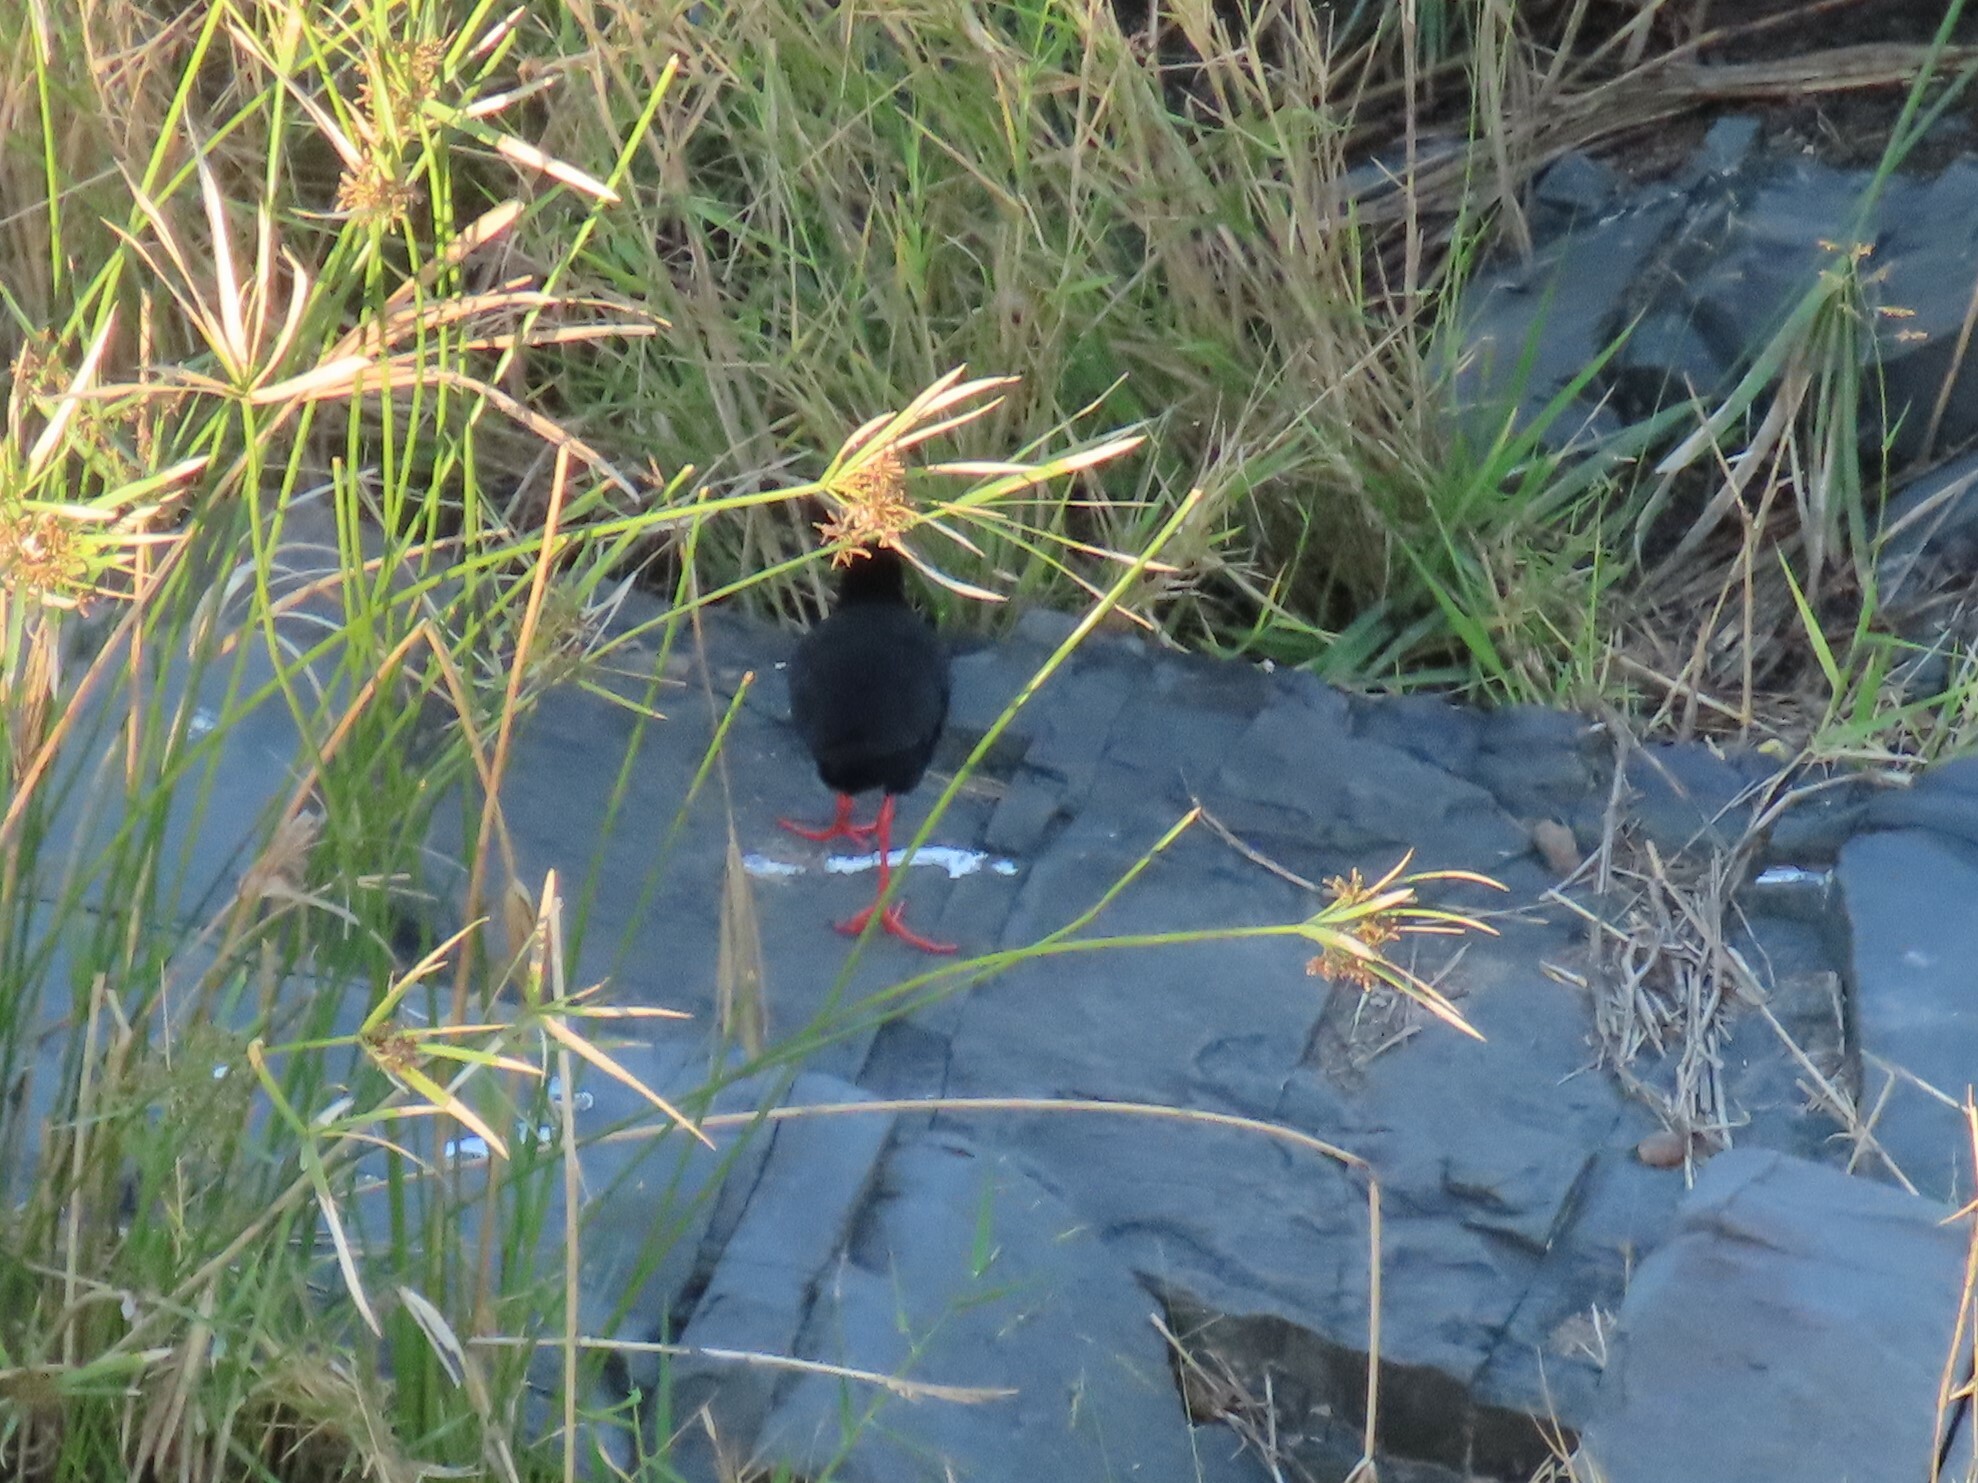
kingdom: Animalia
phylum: Chordata
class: Aves
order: Gruiformes
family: Rallidae
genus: Amaurornis
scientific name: Amaurornis flavirostra
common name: Black crake
